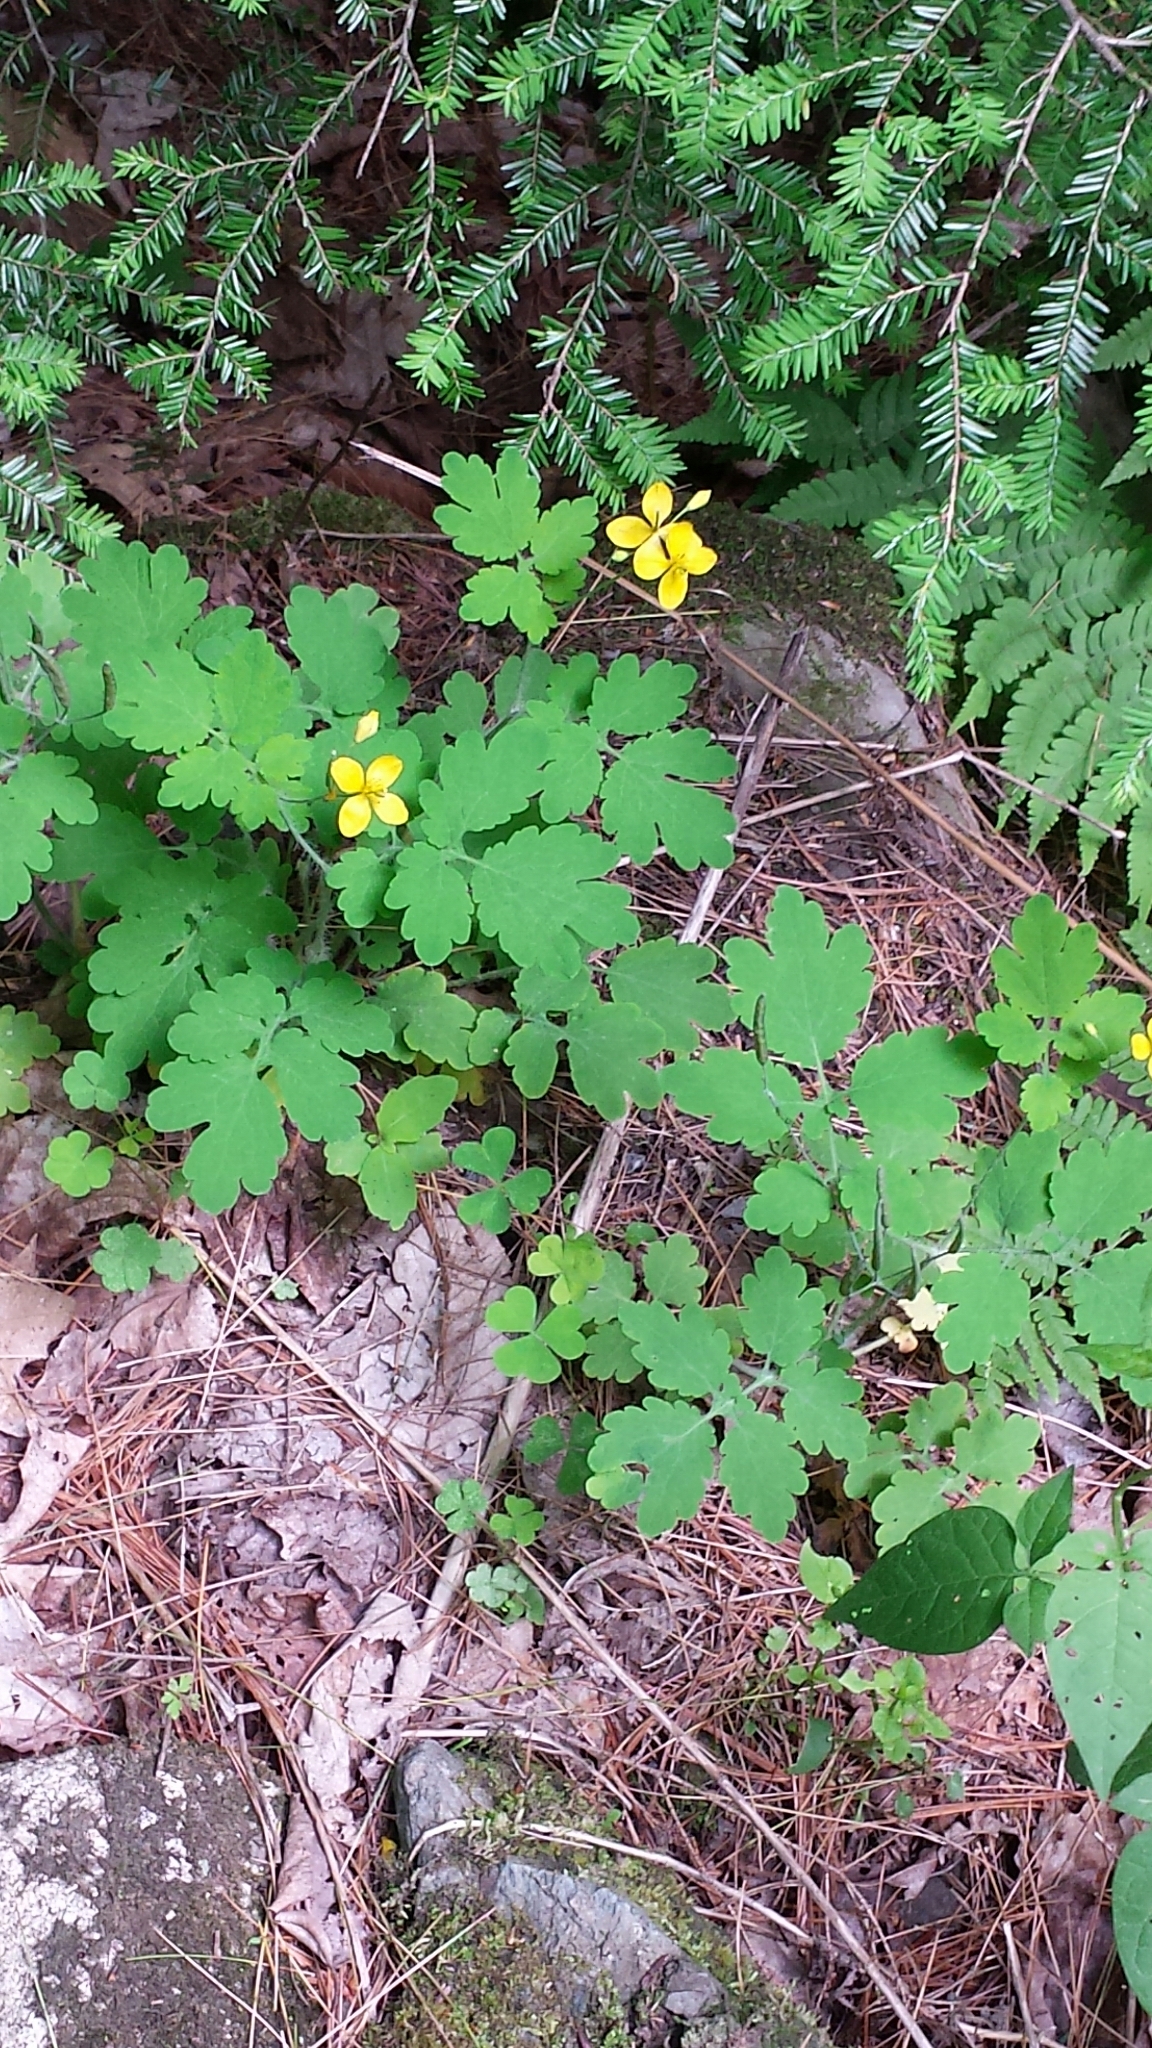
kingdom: Plantae
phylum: Tracheophyta
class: Magnoliopsida
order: Ranunculales
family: Papaveraceae
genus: Chelidonium
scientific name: Chelidonium majus
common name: Greater celandine
